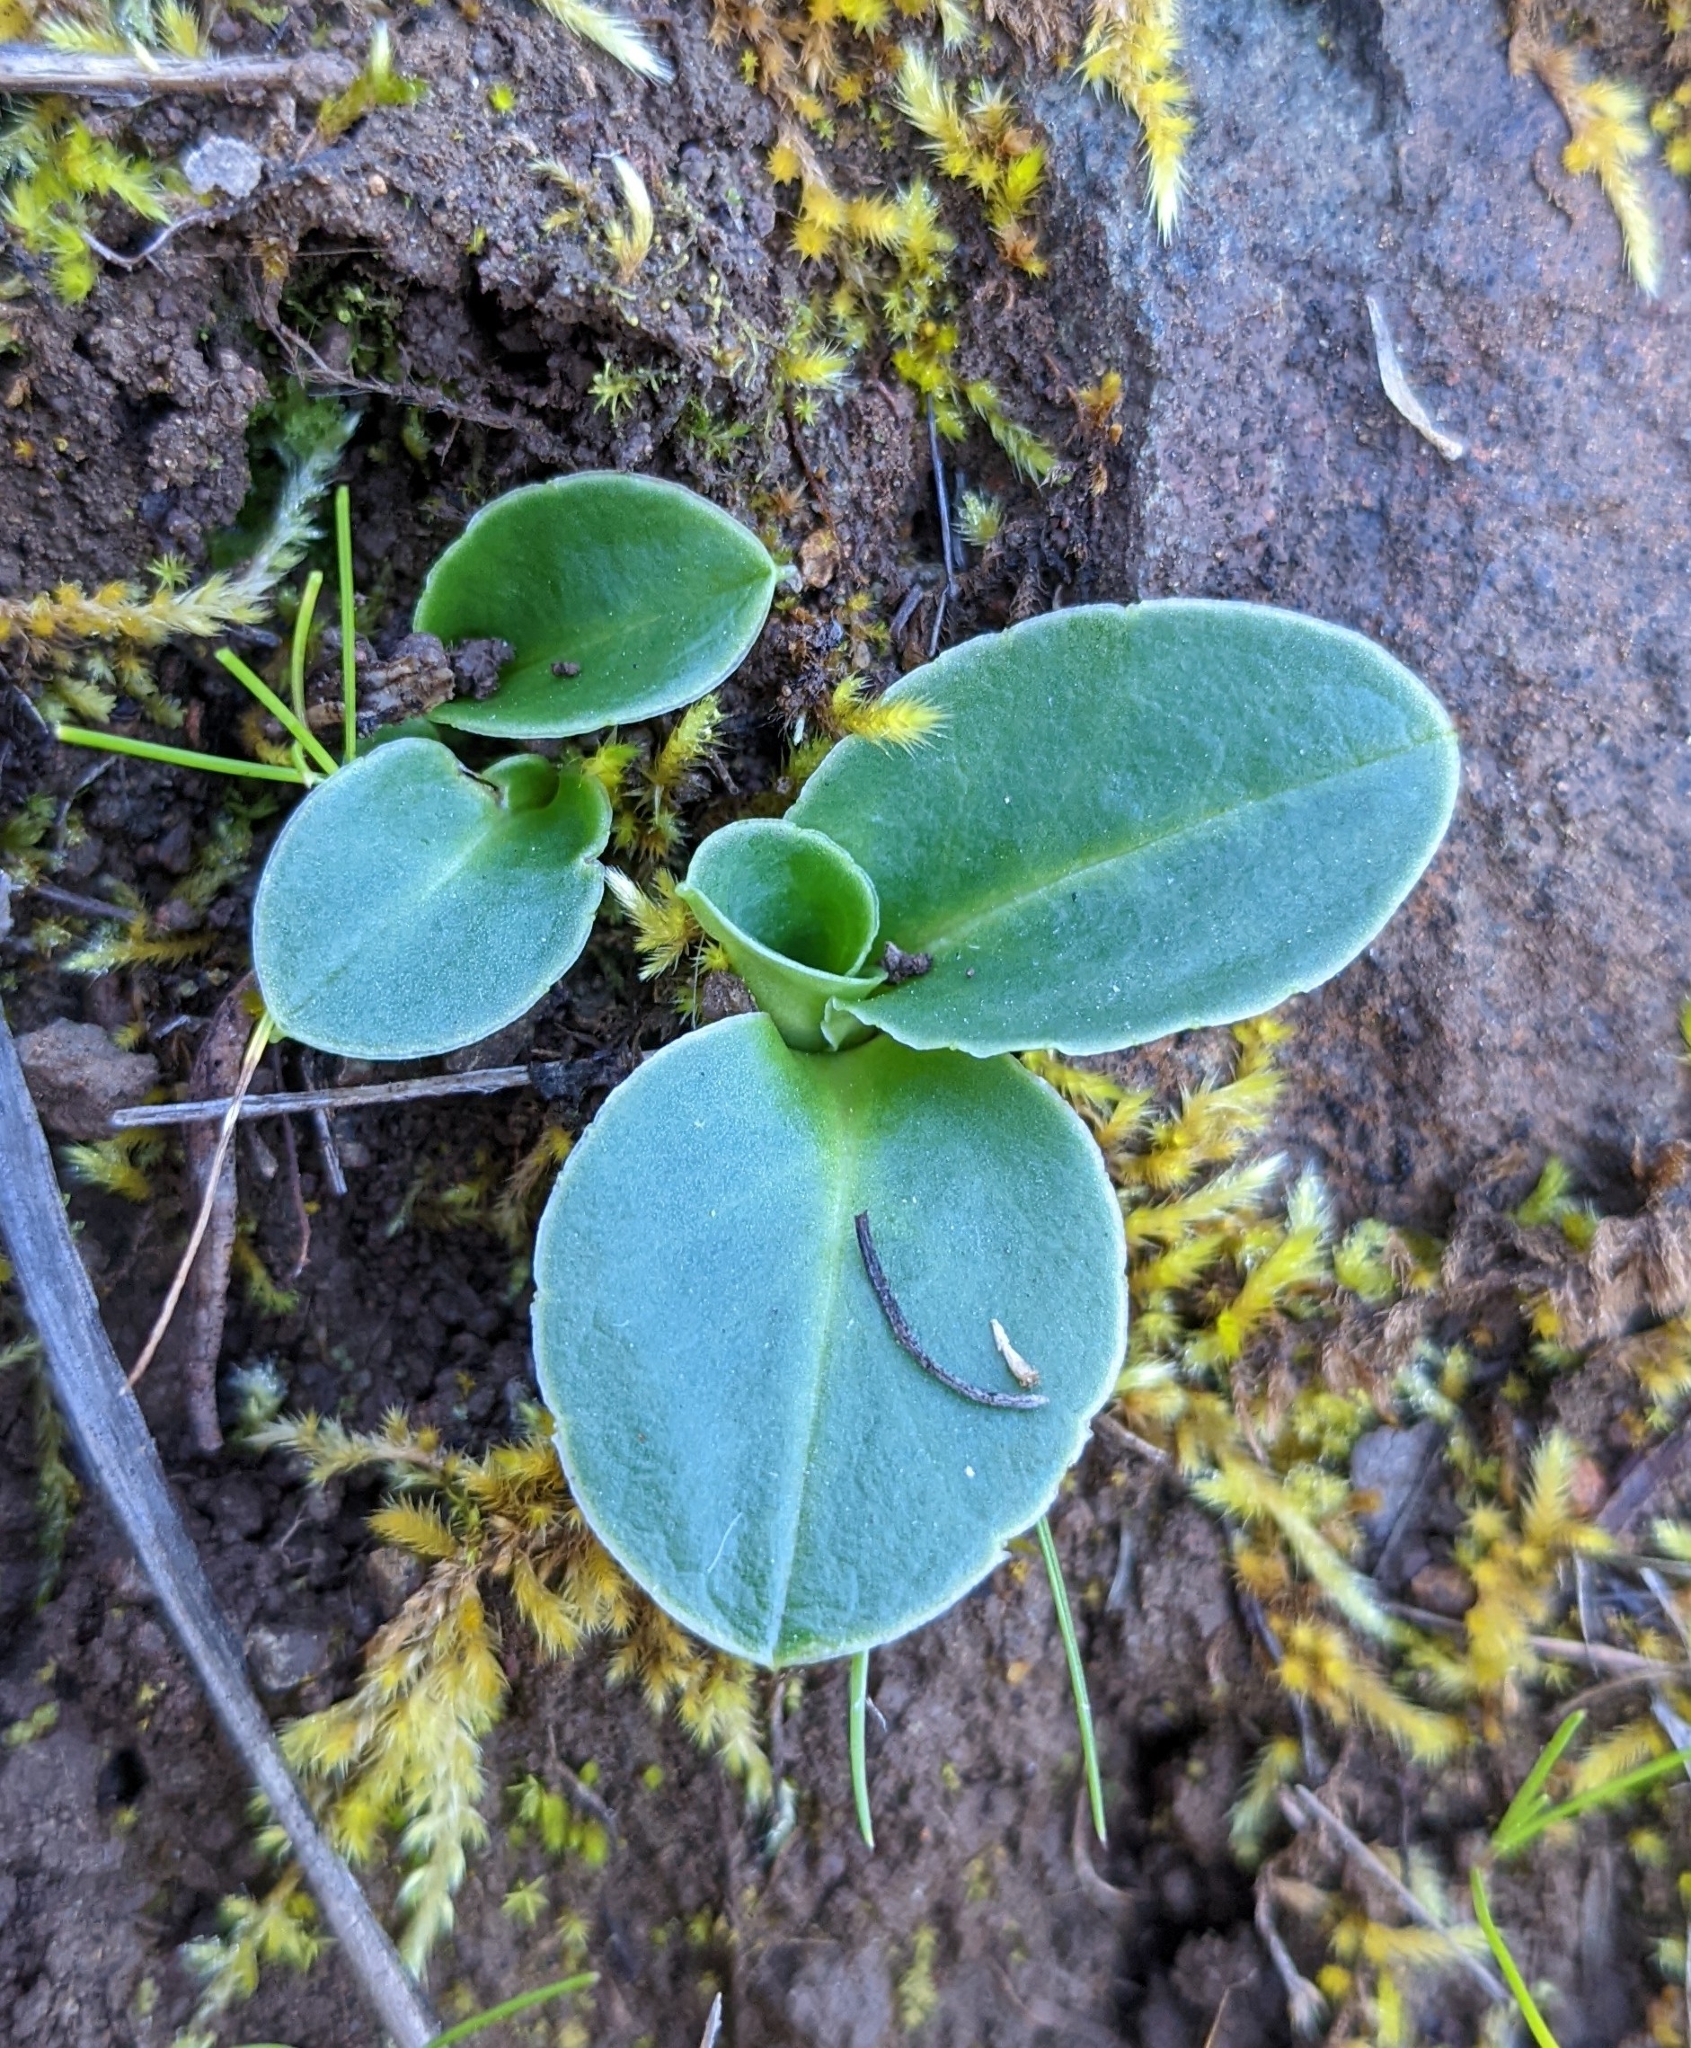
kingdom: Plantae
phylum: Tracheophyta
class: Magnoliopsida
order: Ericales
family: Primulaceae
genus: Dodecatheon
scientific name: Dodecatheon hendersonii
